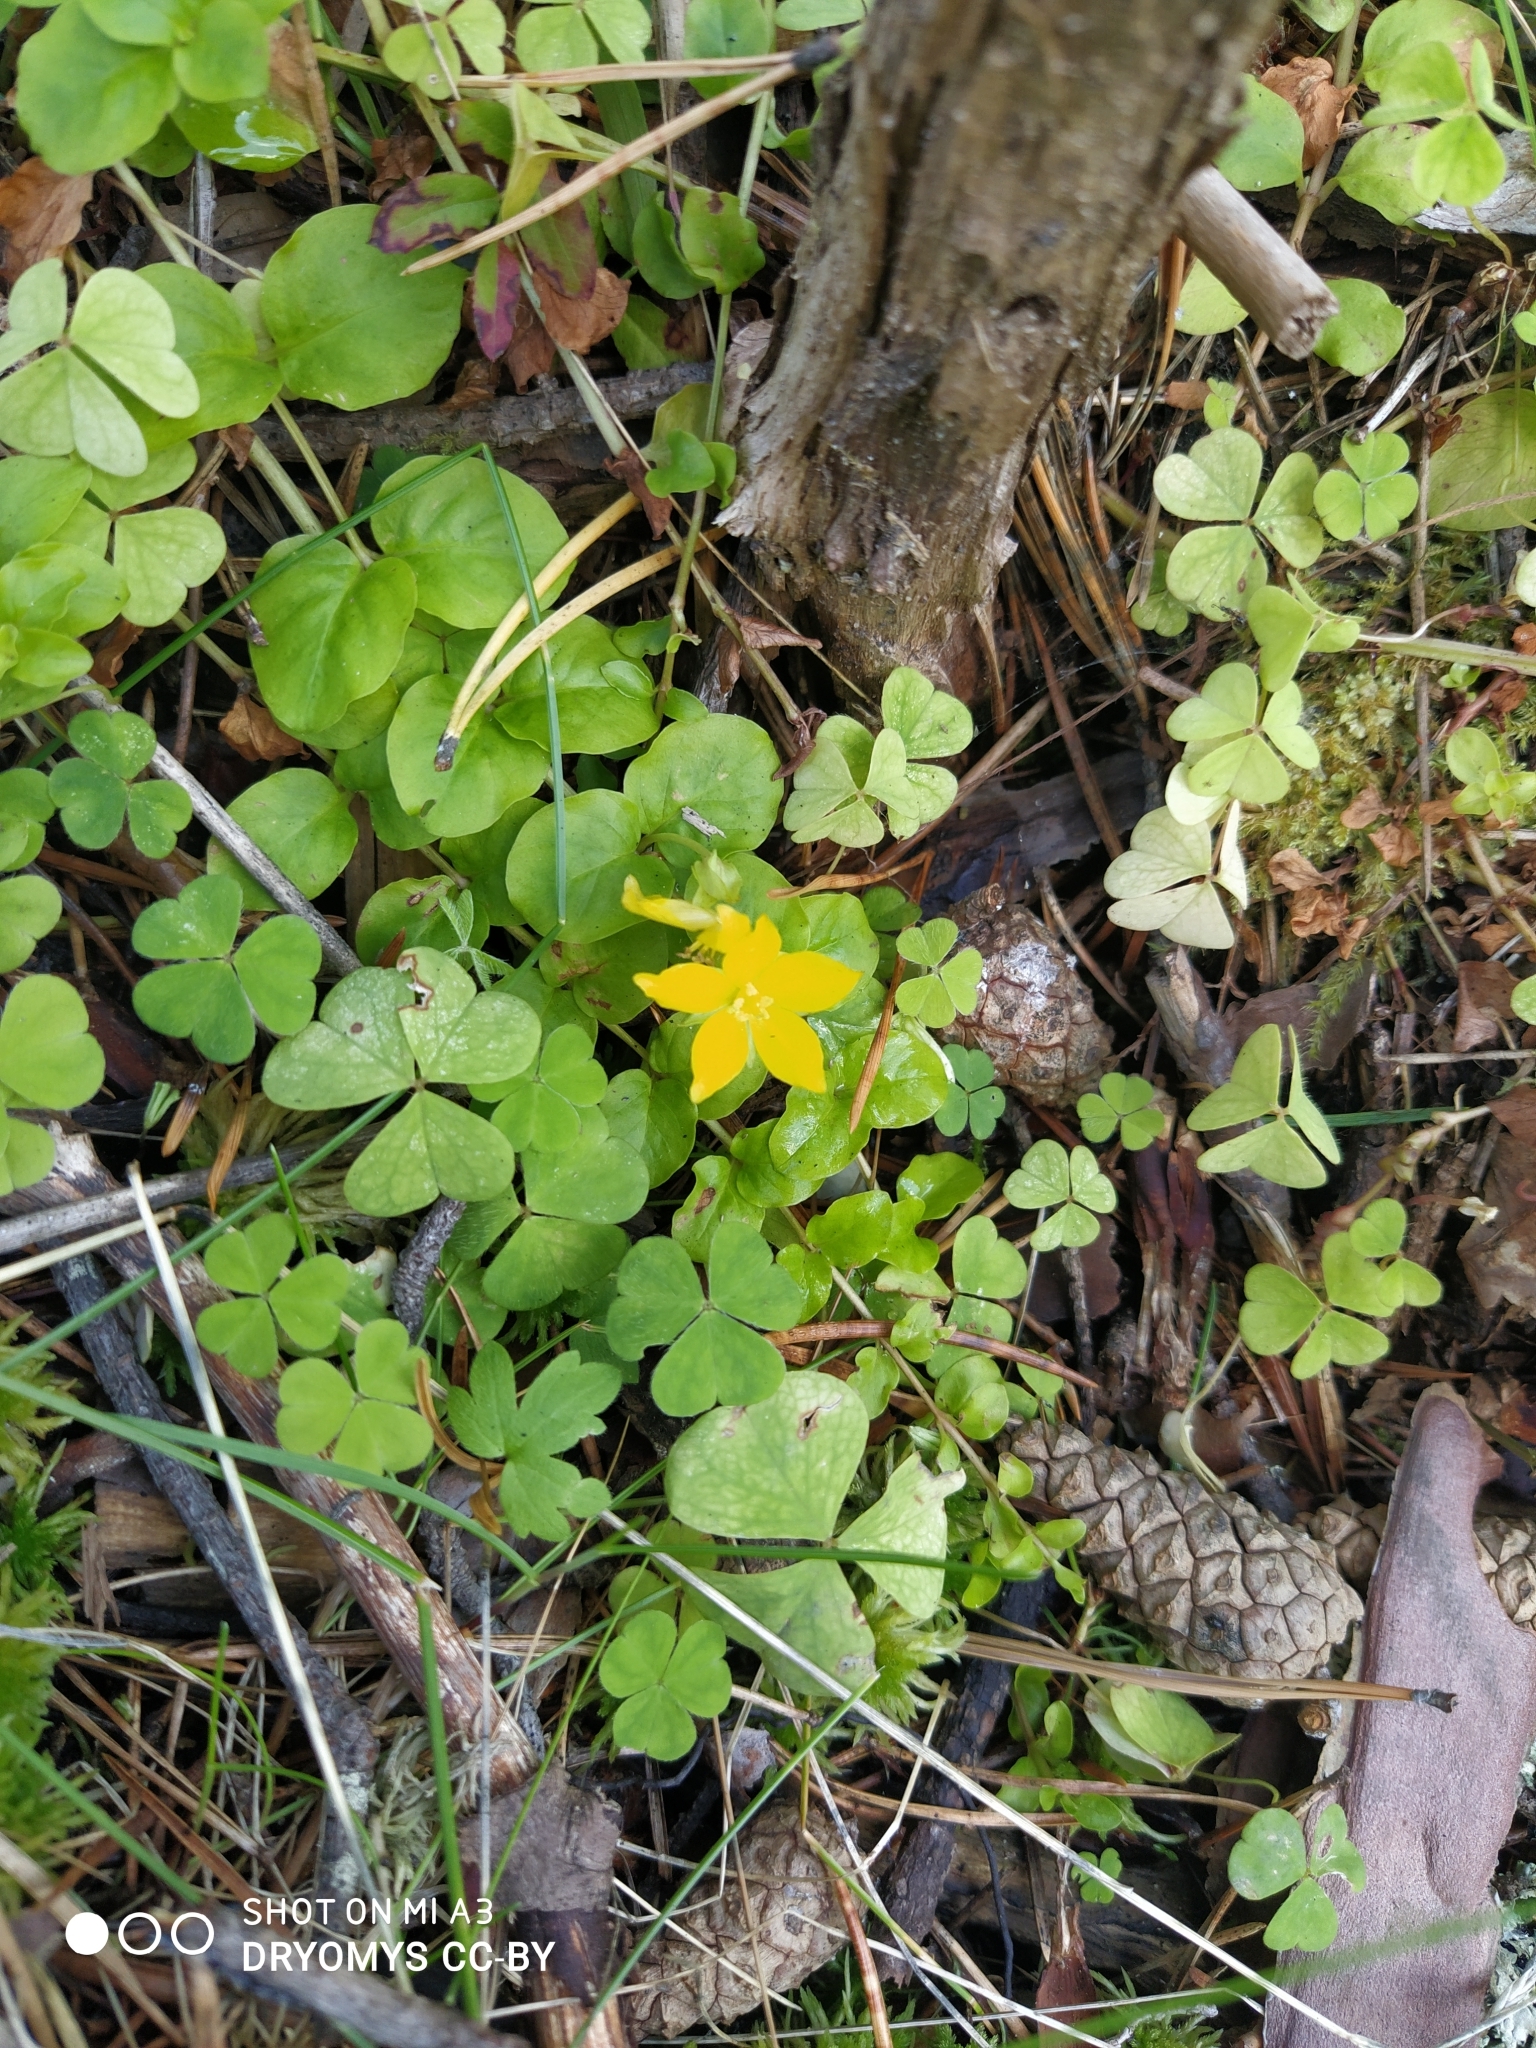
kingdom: Plantae
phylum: Tracheophyta
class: Magnoliopsida
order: Ericales
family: Primulaceae
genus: Lysimachia
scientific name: Lysimachia nummularia
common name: Moneywort
